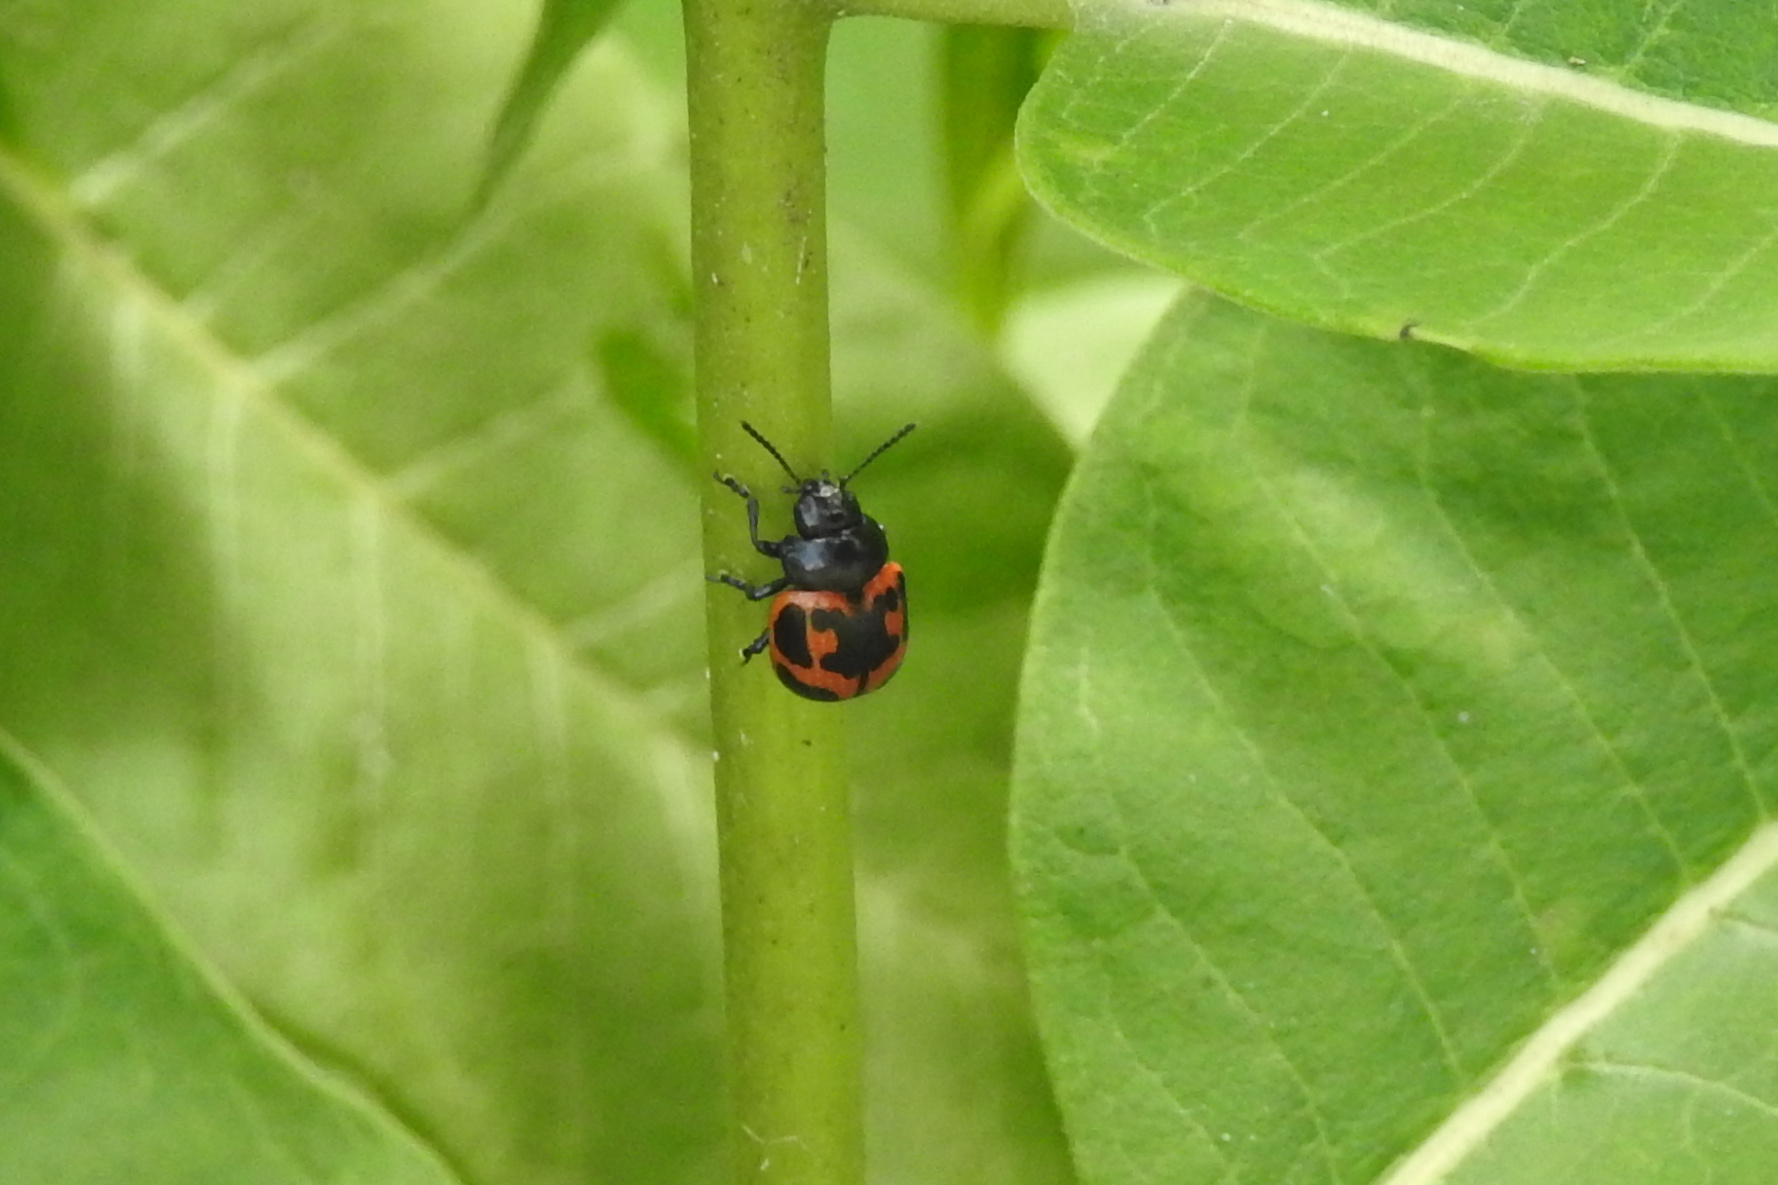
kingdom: Animalia
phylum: Arthropoda
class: Insecta
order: Coleoptera
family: Chrysomelidae
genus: Labidomera
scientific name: Labidomera clivicollis
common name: Swamp milkweed leaf beetle
